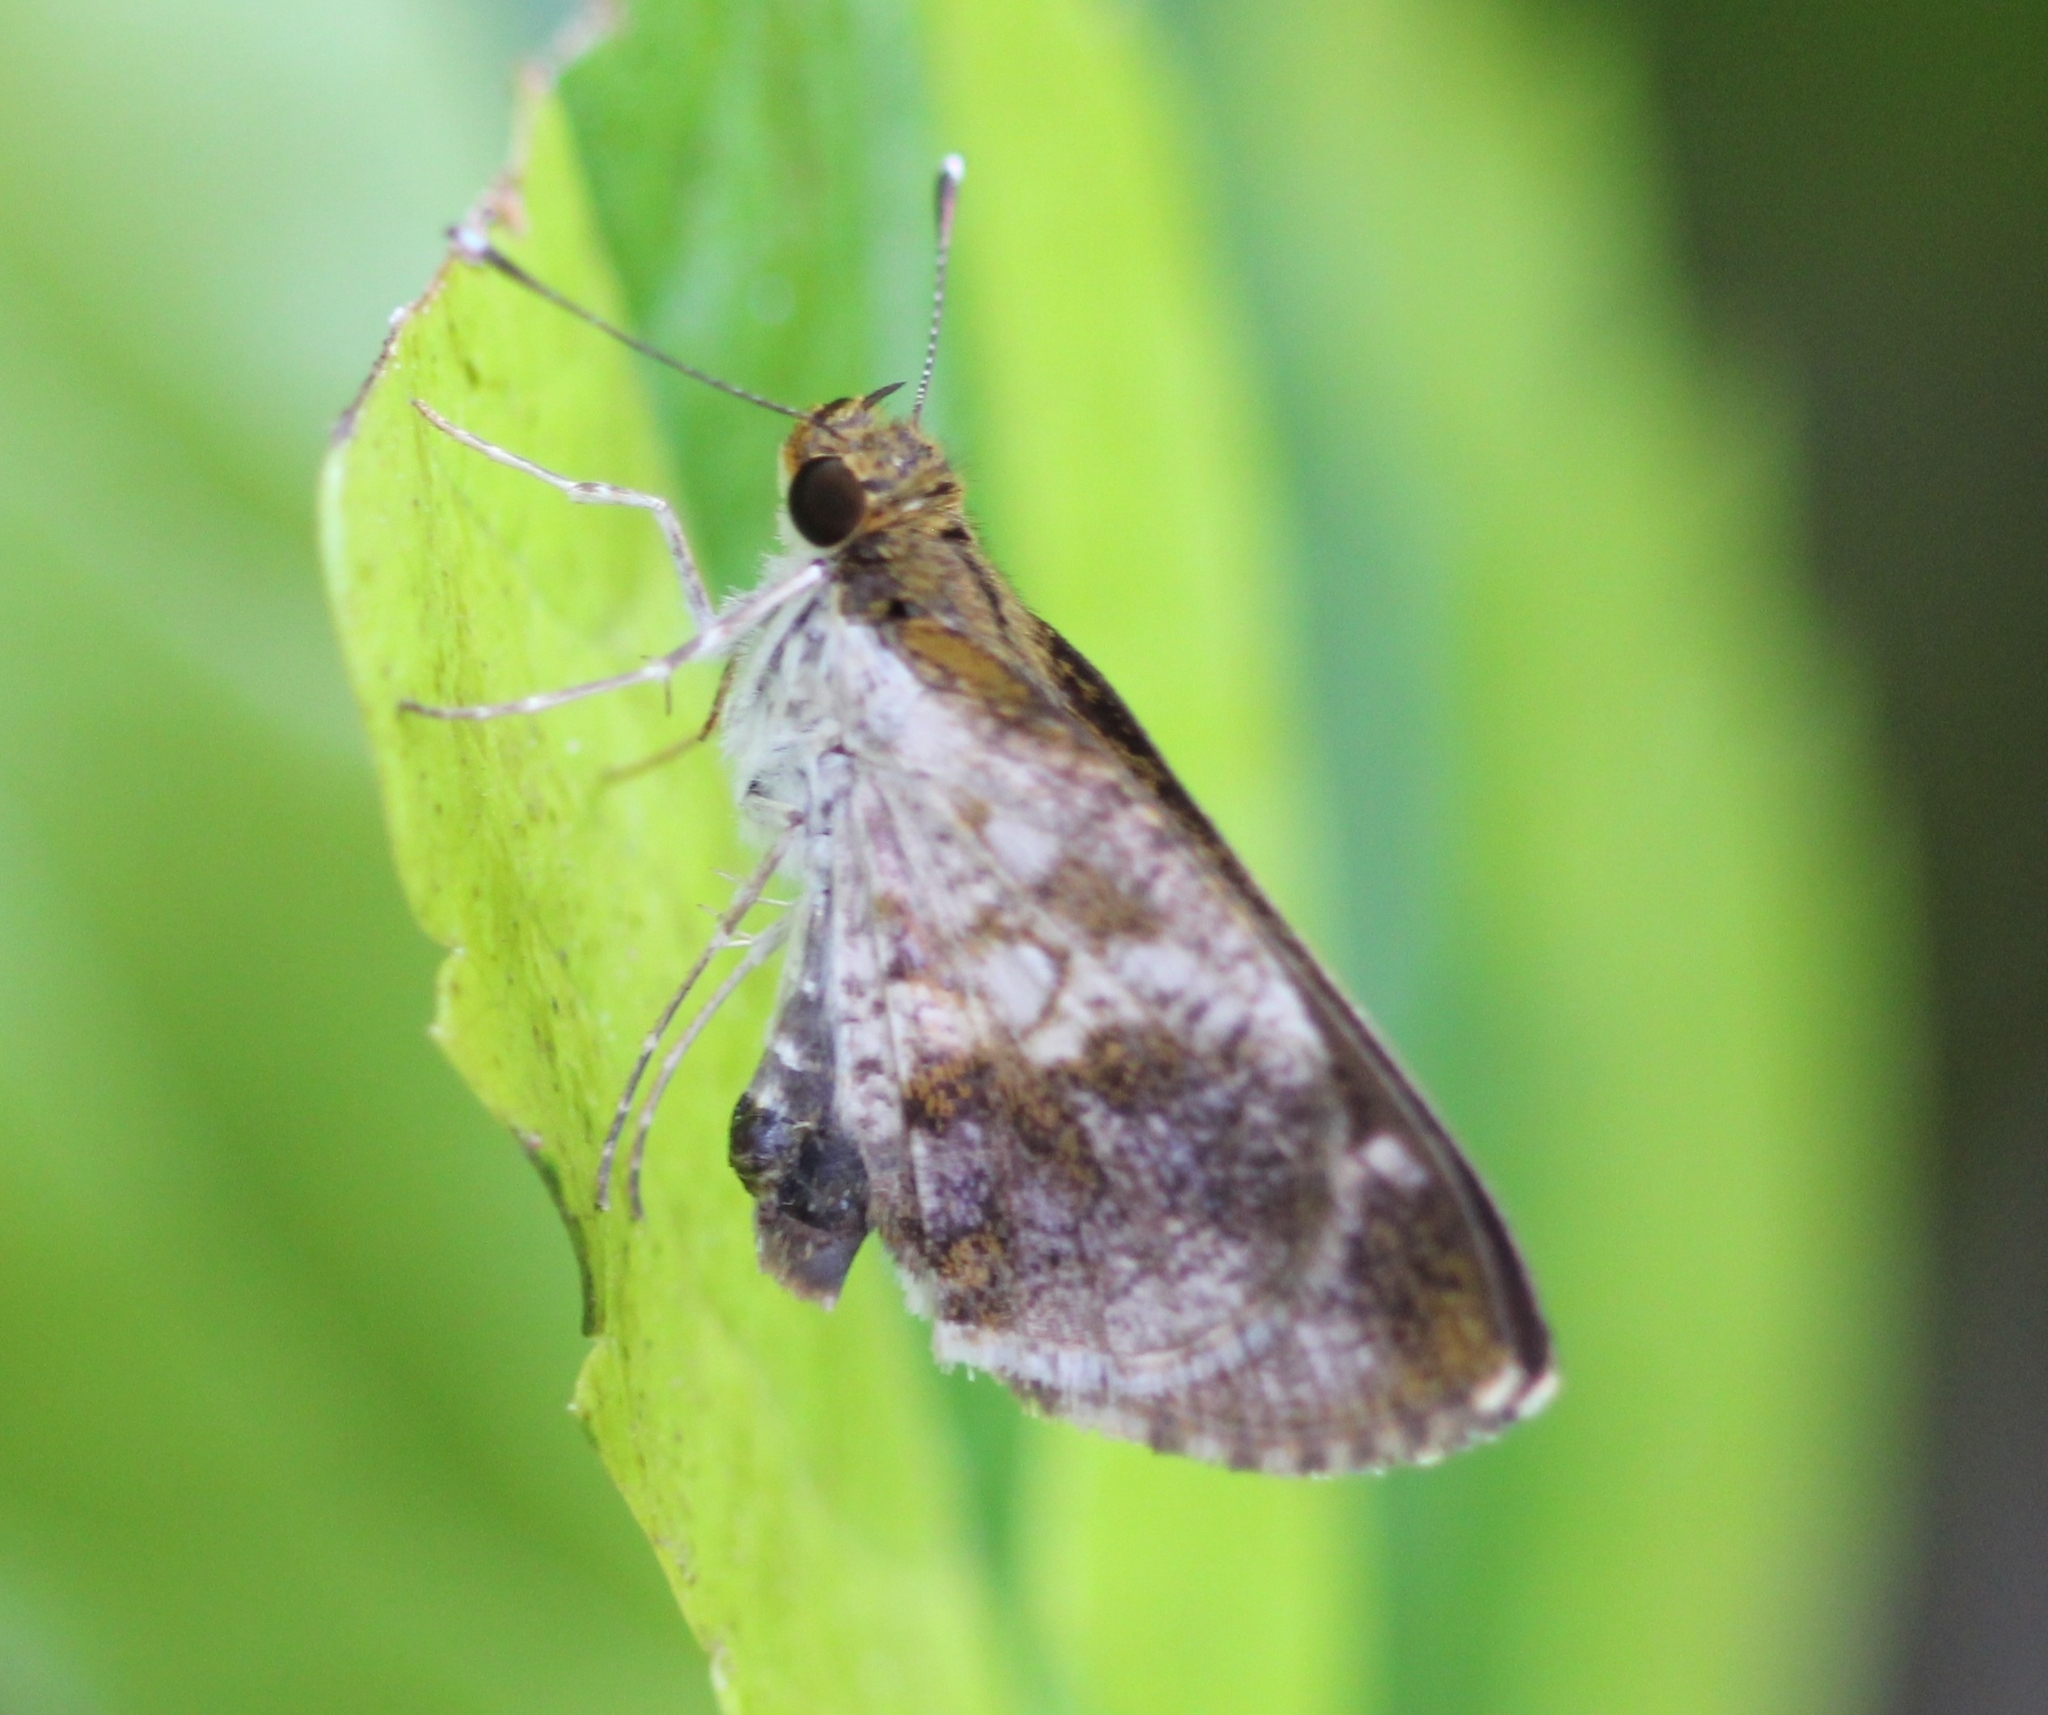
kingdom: Animalia
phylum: Arthropoda
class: Insecta
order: Lepidoptera
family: Hesperiidae
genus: Acleros
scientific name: Acleros mackenii
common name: Shade dart
